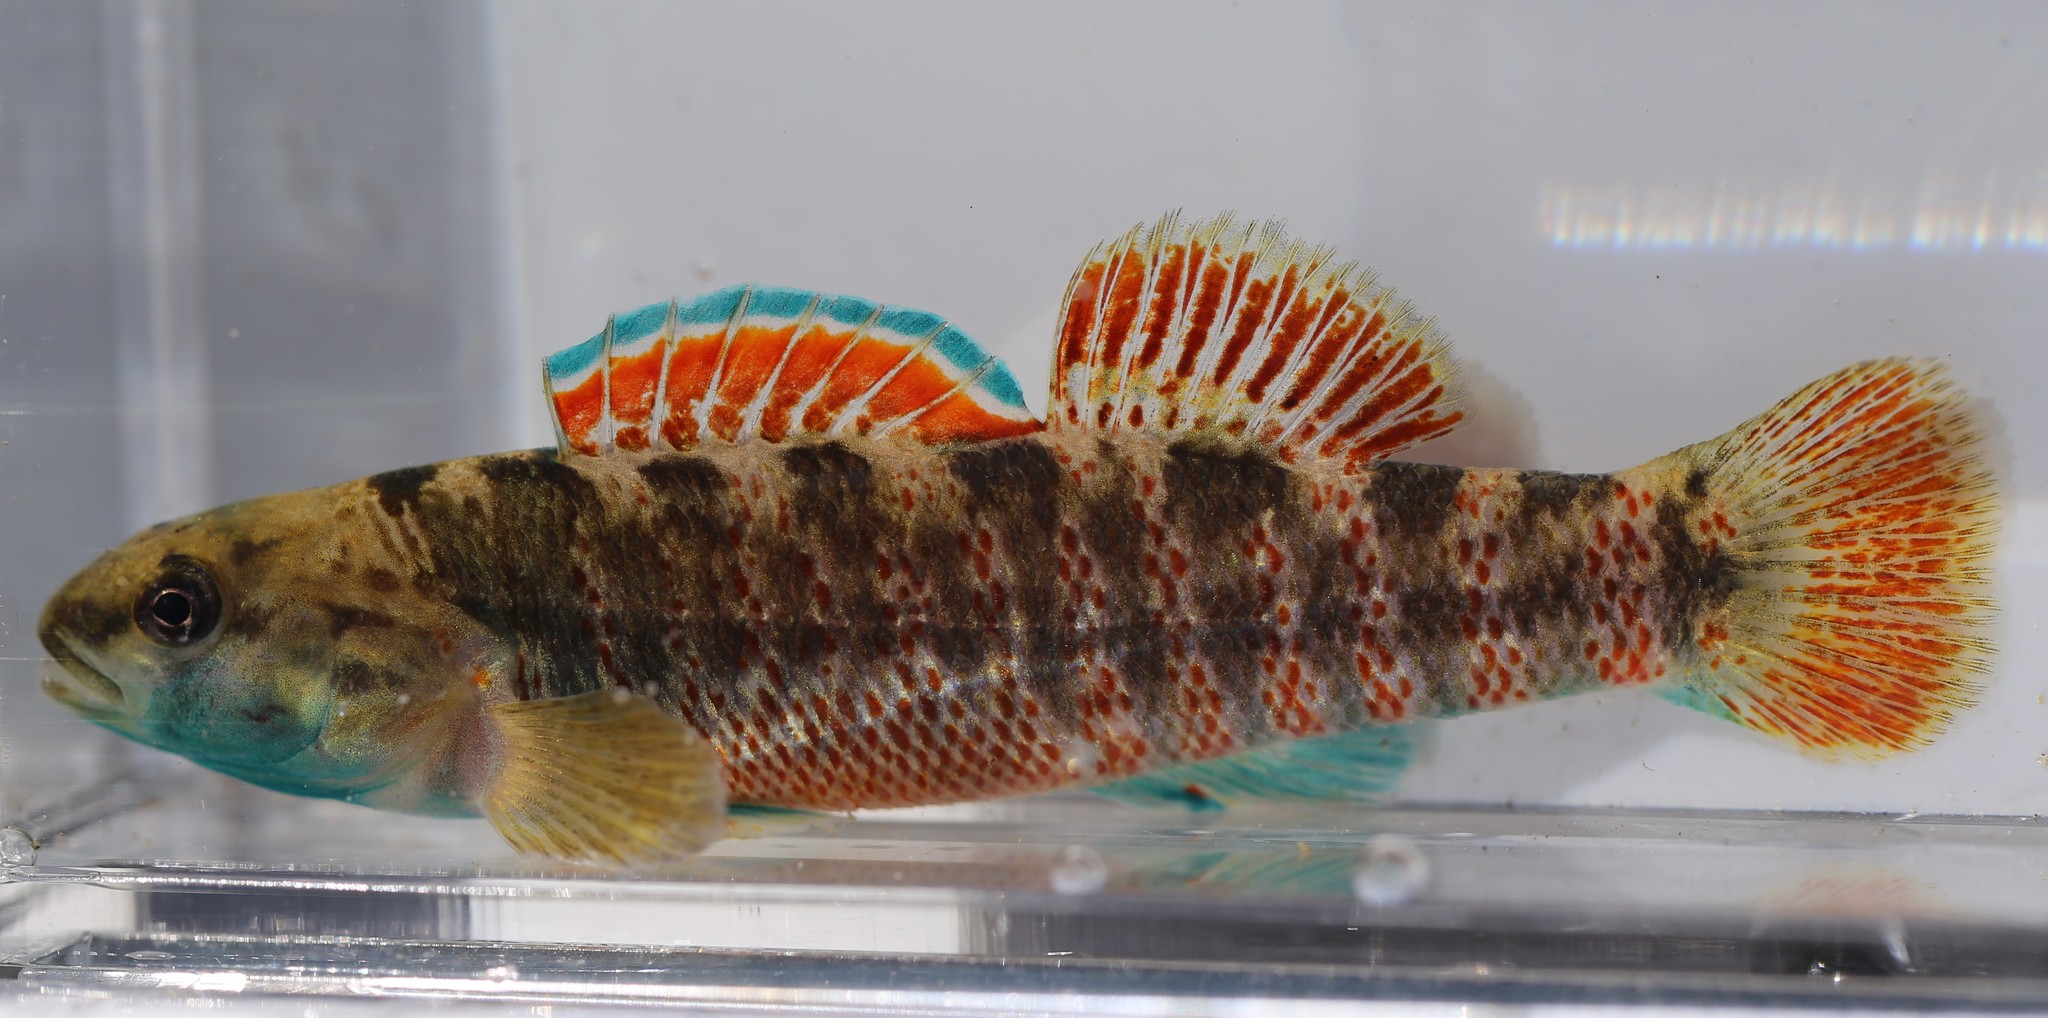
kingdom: Animalia
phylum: Chordata
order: Perciformes
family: Percidae
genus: Etheostoma
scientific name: Etheostoma lepidum
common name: Greenthroat darter
